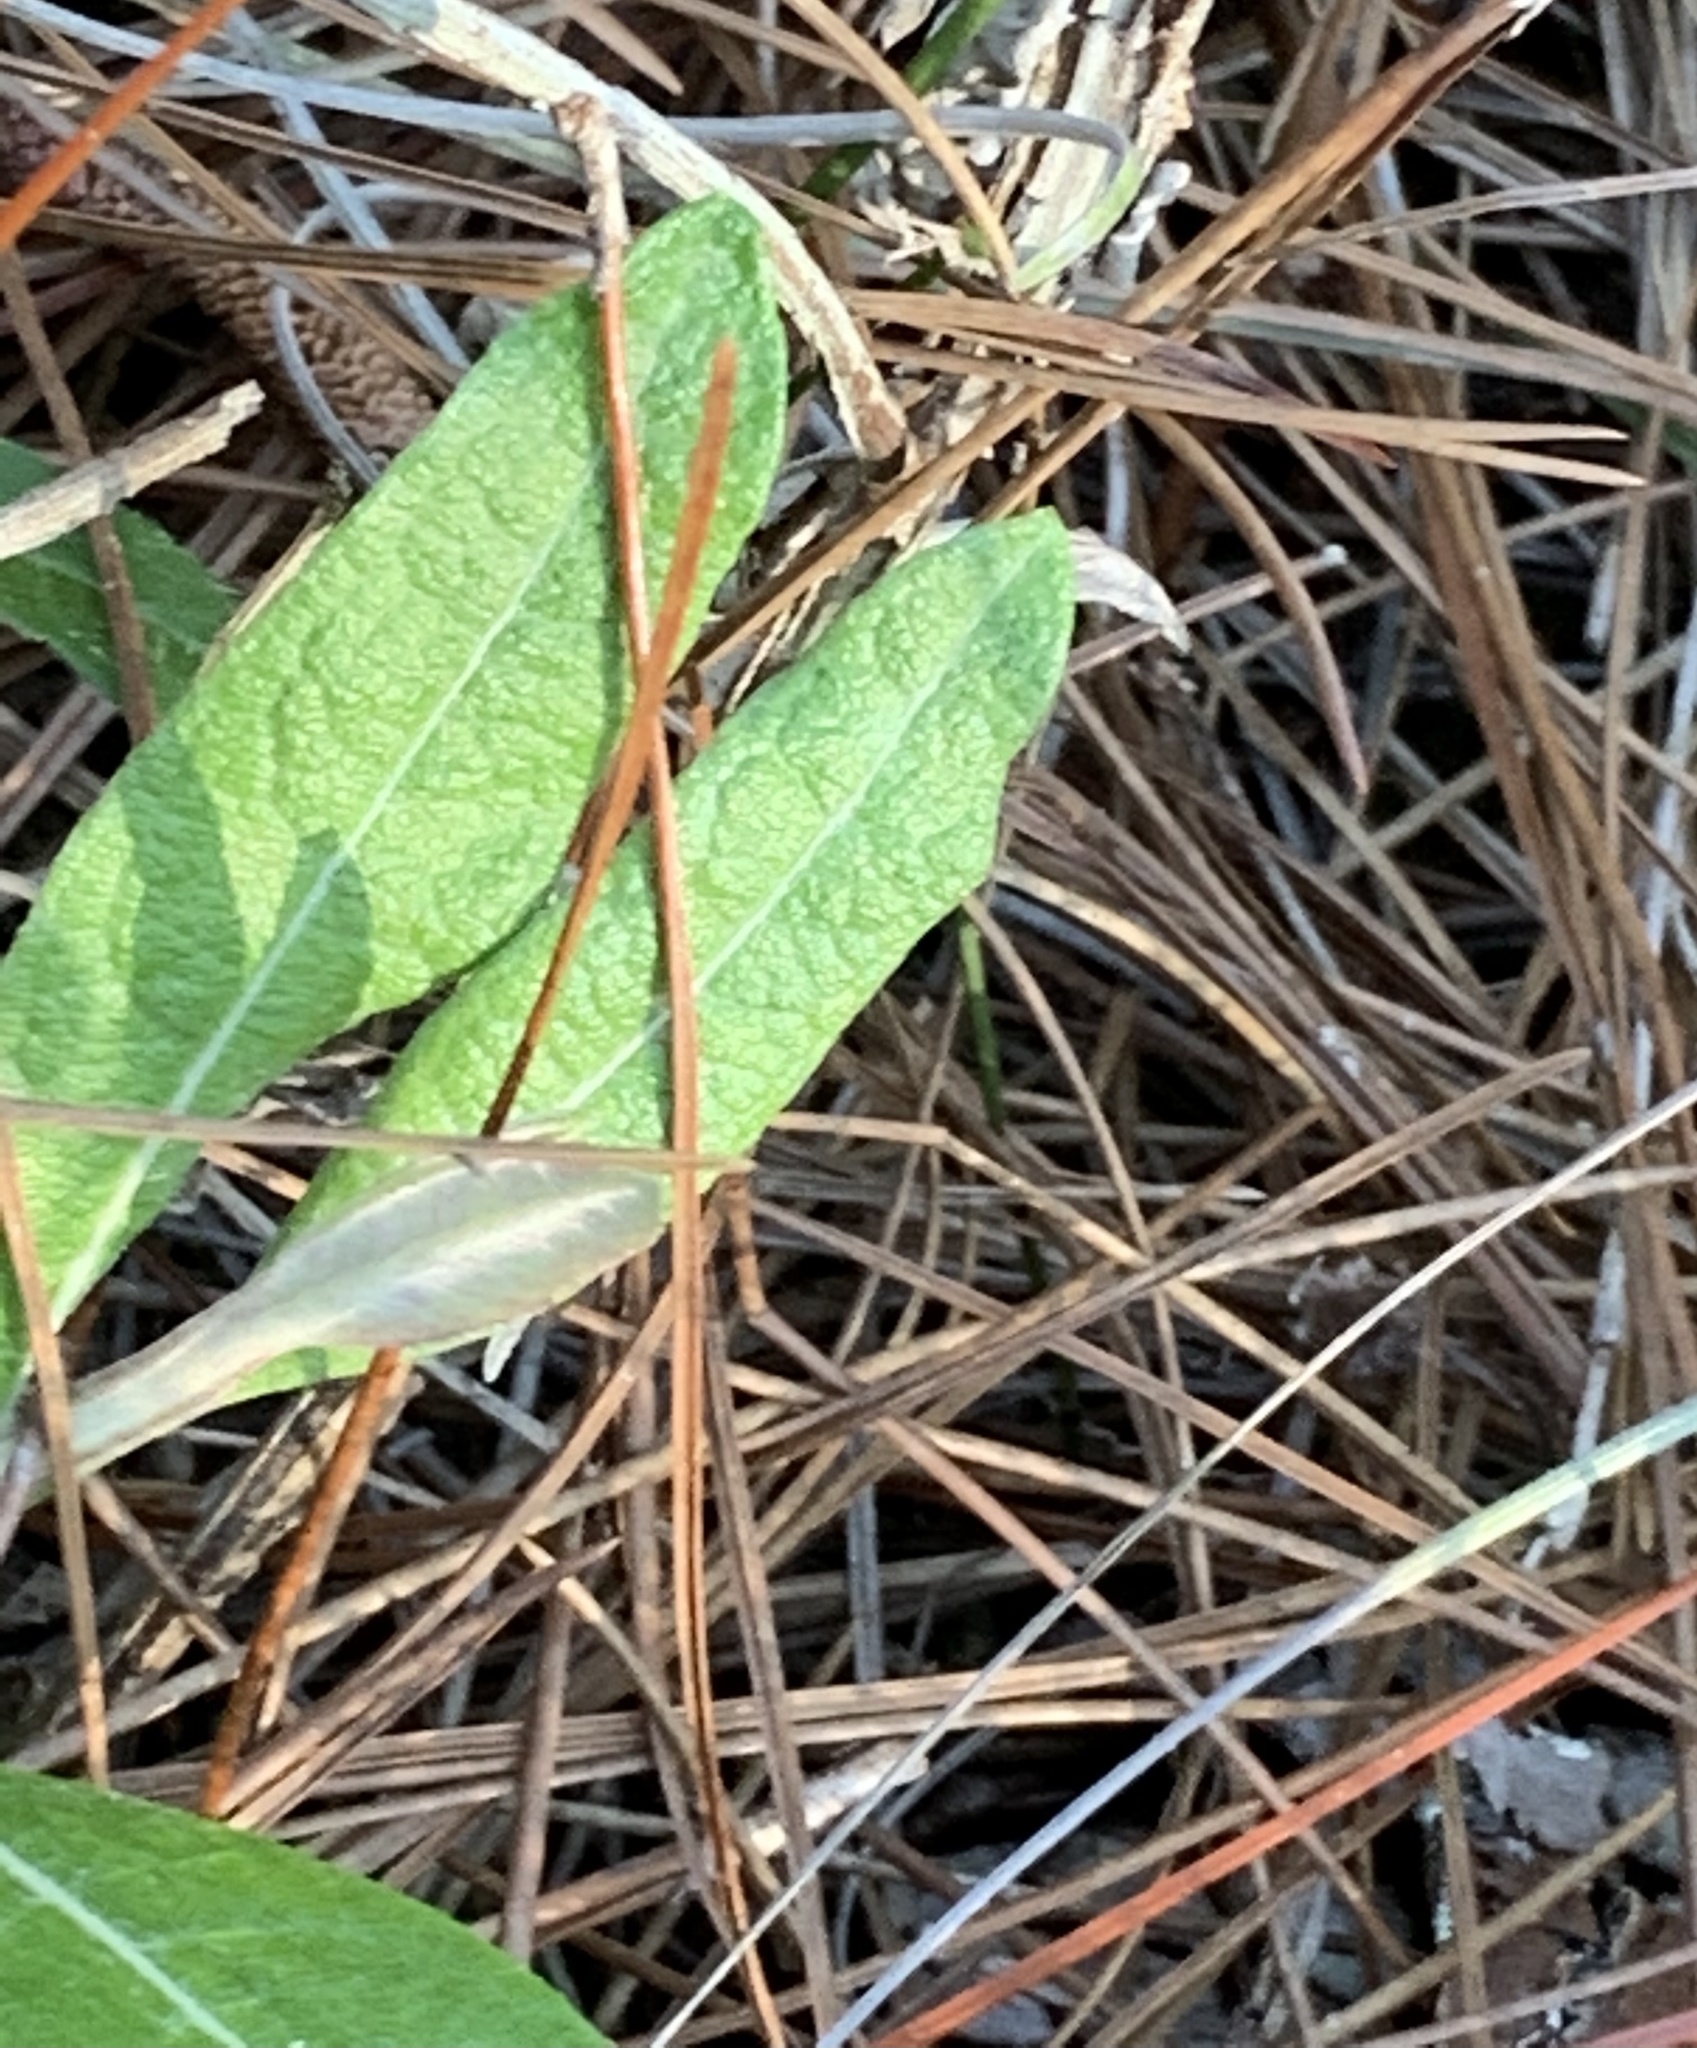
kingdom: Plantae
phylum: Tracheophyta
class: Magnoliopsida
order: Asterales
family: Asteraceae
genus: Pterocaulon
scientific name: Pterocaulon pycnostachyum
